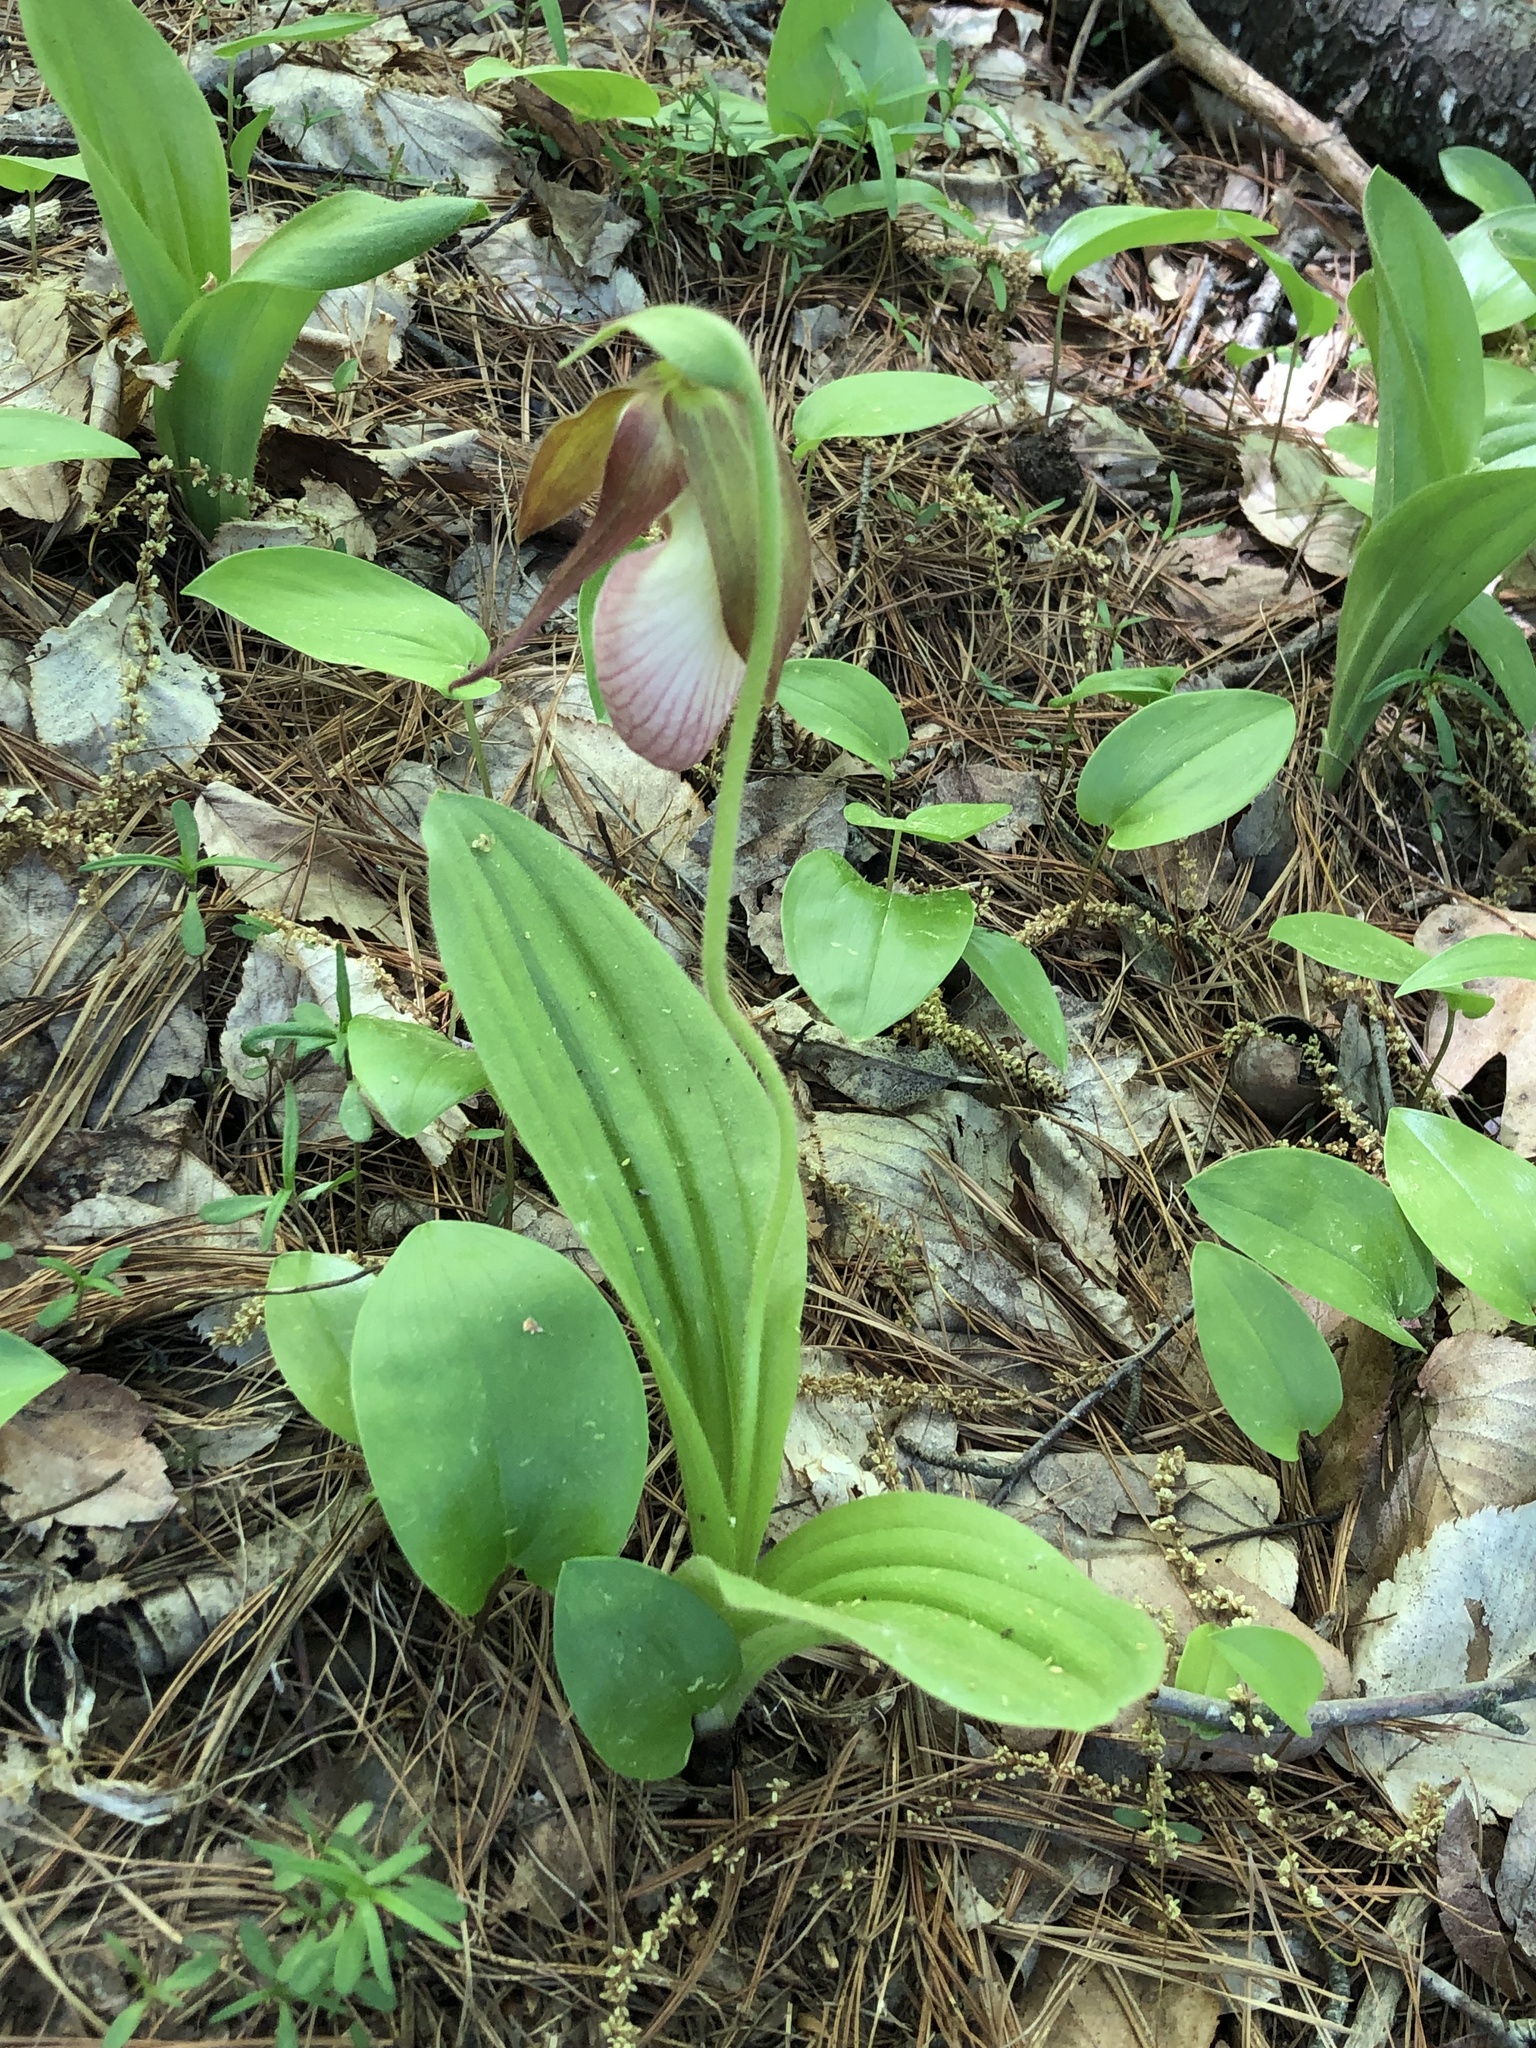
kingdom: Plantae
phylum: Tracheophyta
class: Liliopsida
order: Asparagales
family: Orchidaceae
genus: Cypripedium
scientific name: Cypripedium acaule
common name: Pink lady's-slipper
